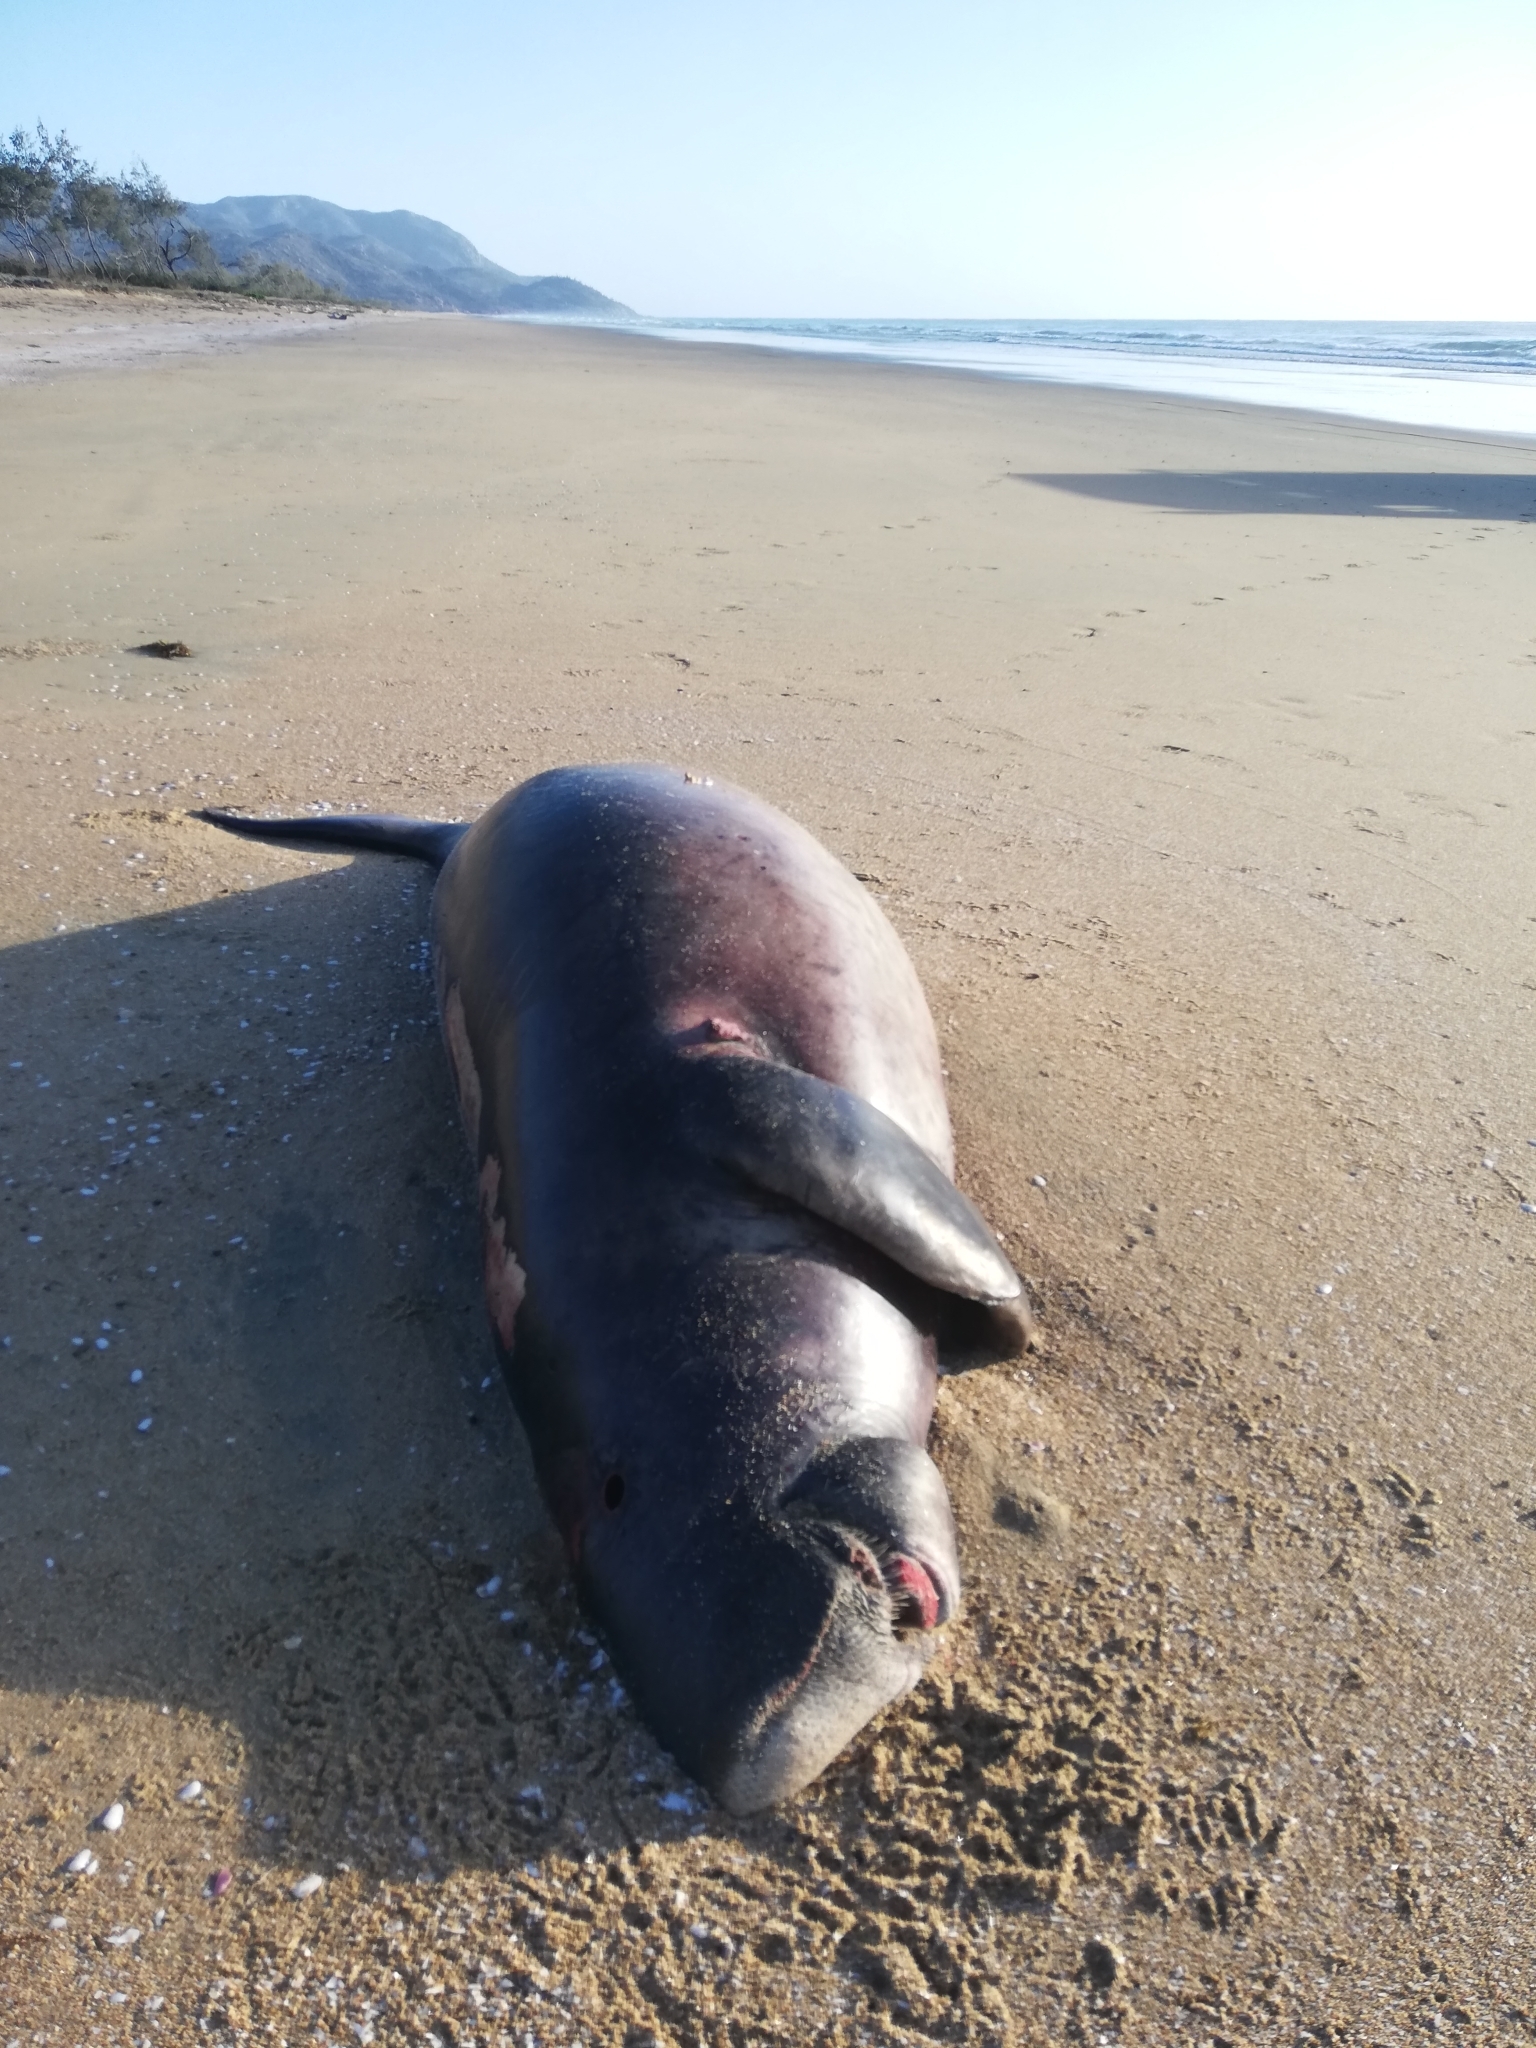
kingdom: Animalia
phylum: Chordata
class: Mammalia
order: Sirenia
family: Dugongidae
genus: Dugong
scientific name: Dugong dugon
